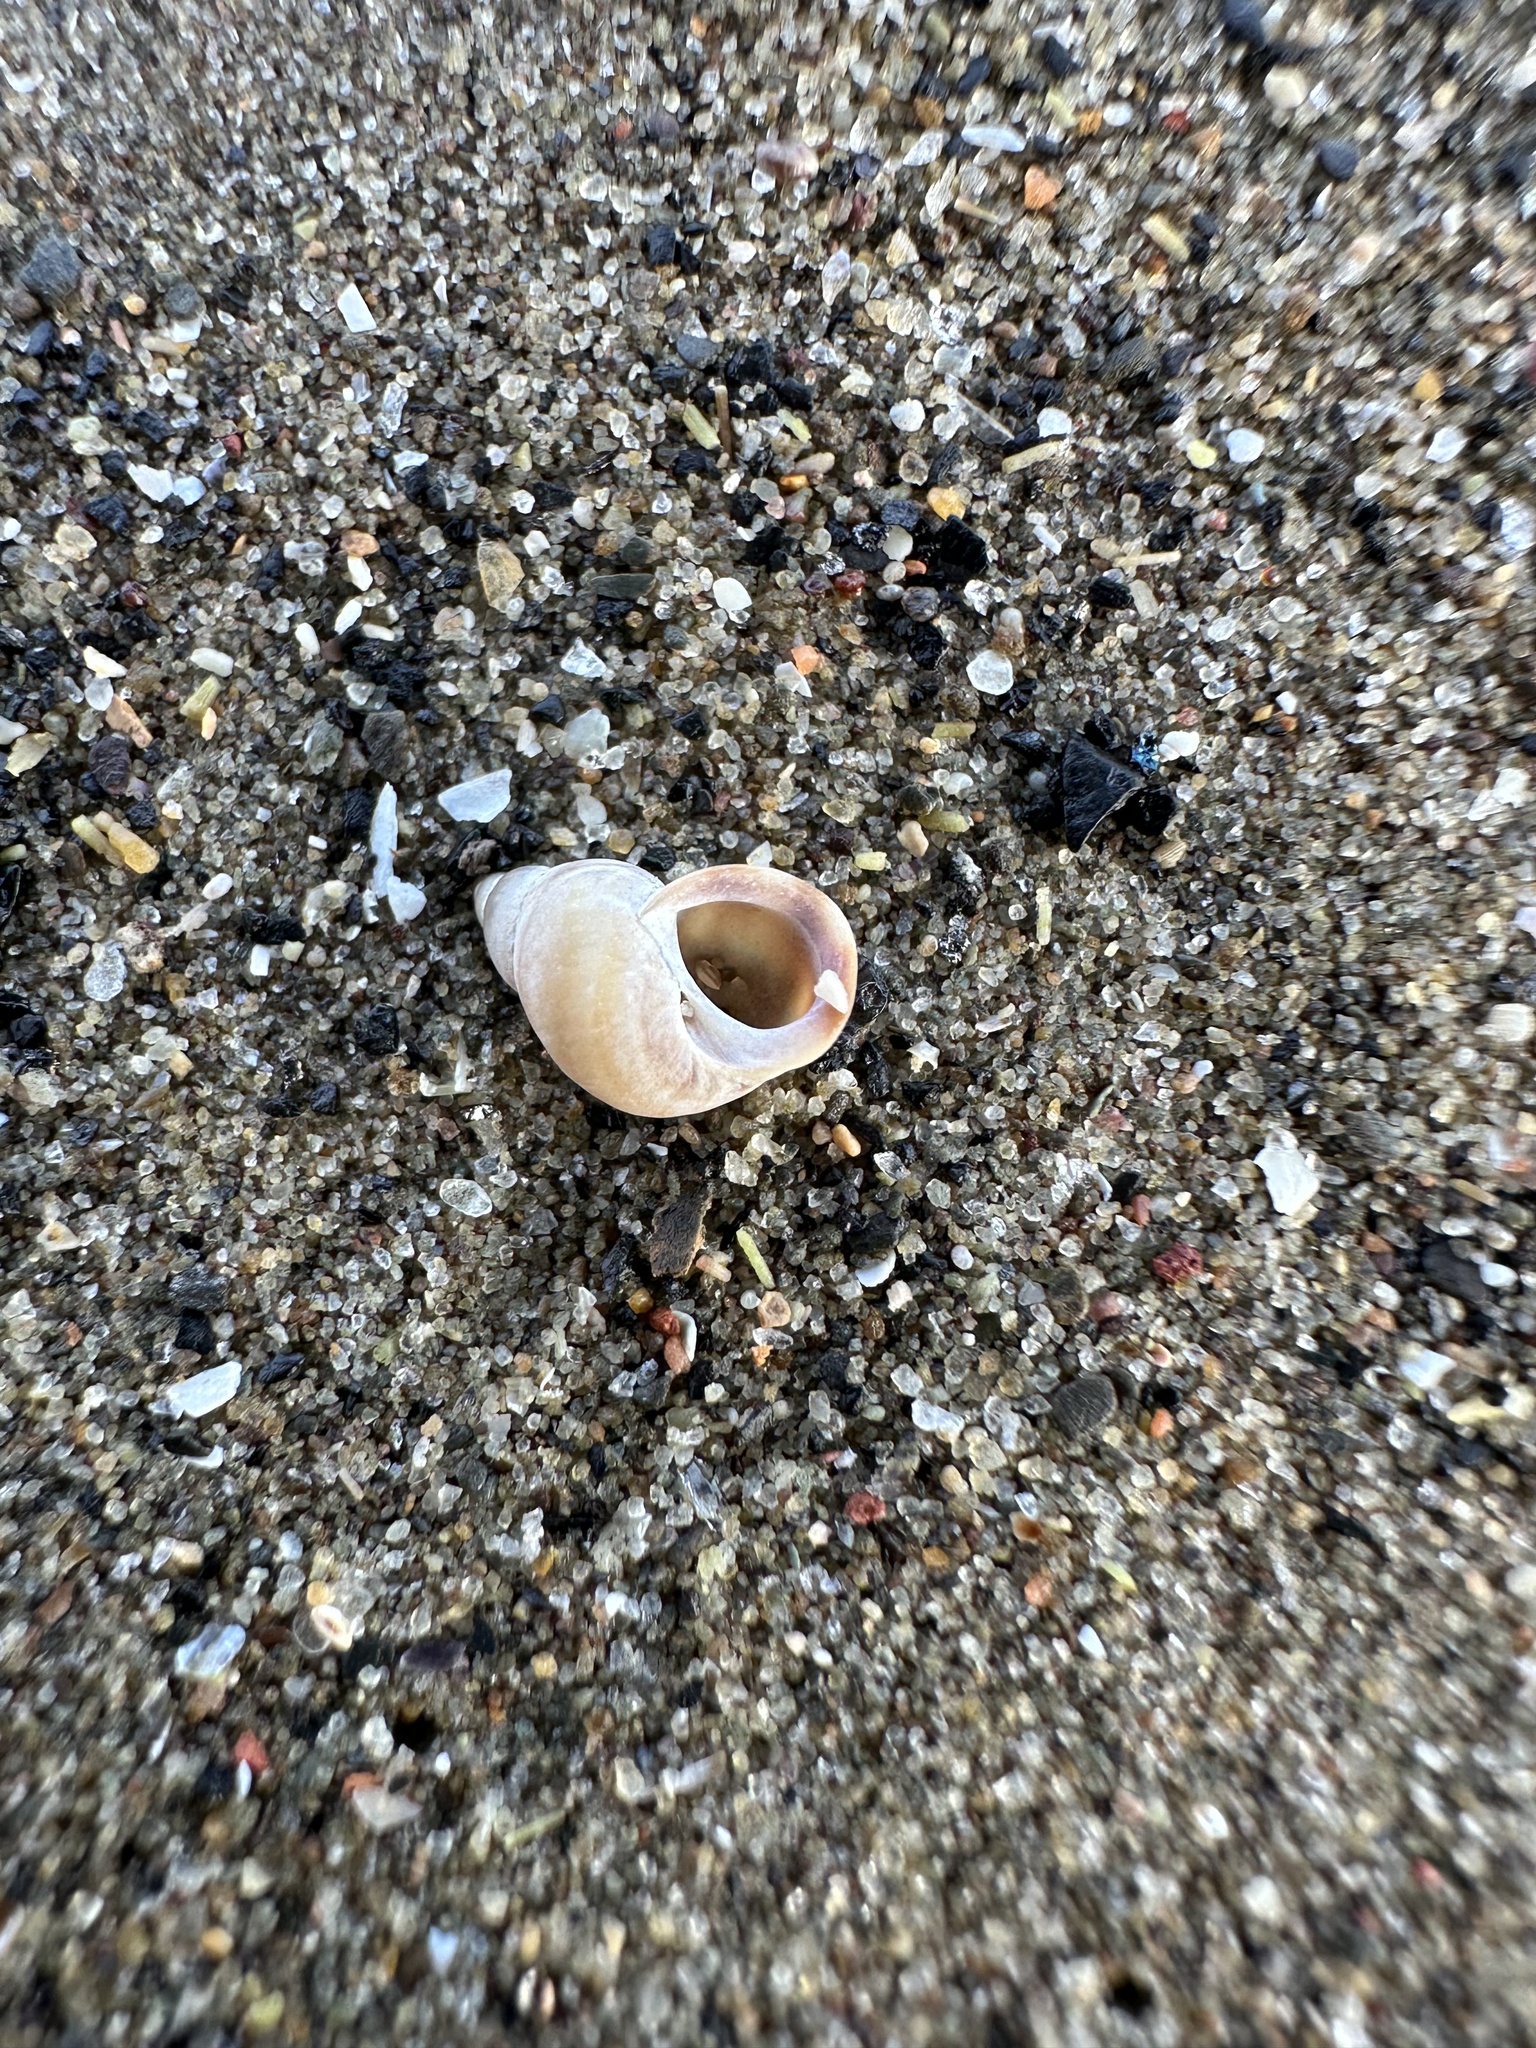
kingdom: Animalia
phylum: Mollusca
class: Gastropoda
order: Littorinimorpha
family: Littorinidae
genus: Lacuna
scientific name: Lacuna vincta
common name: Banded chink shell
